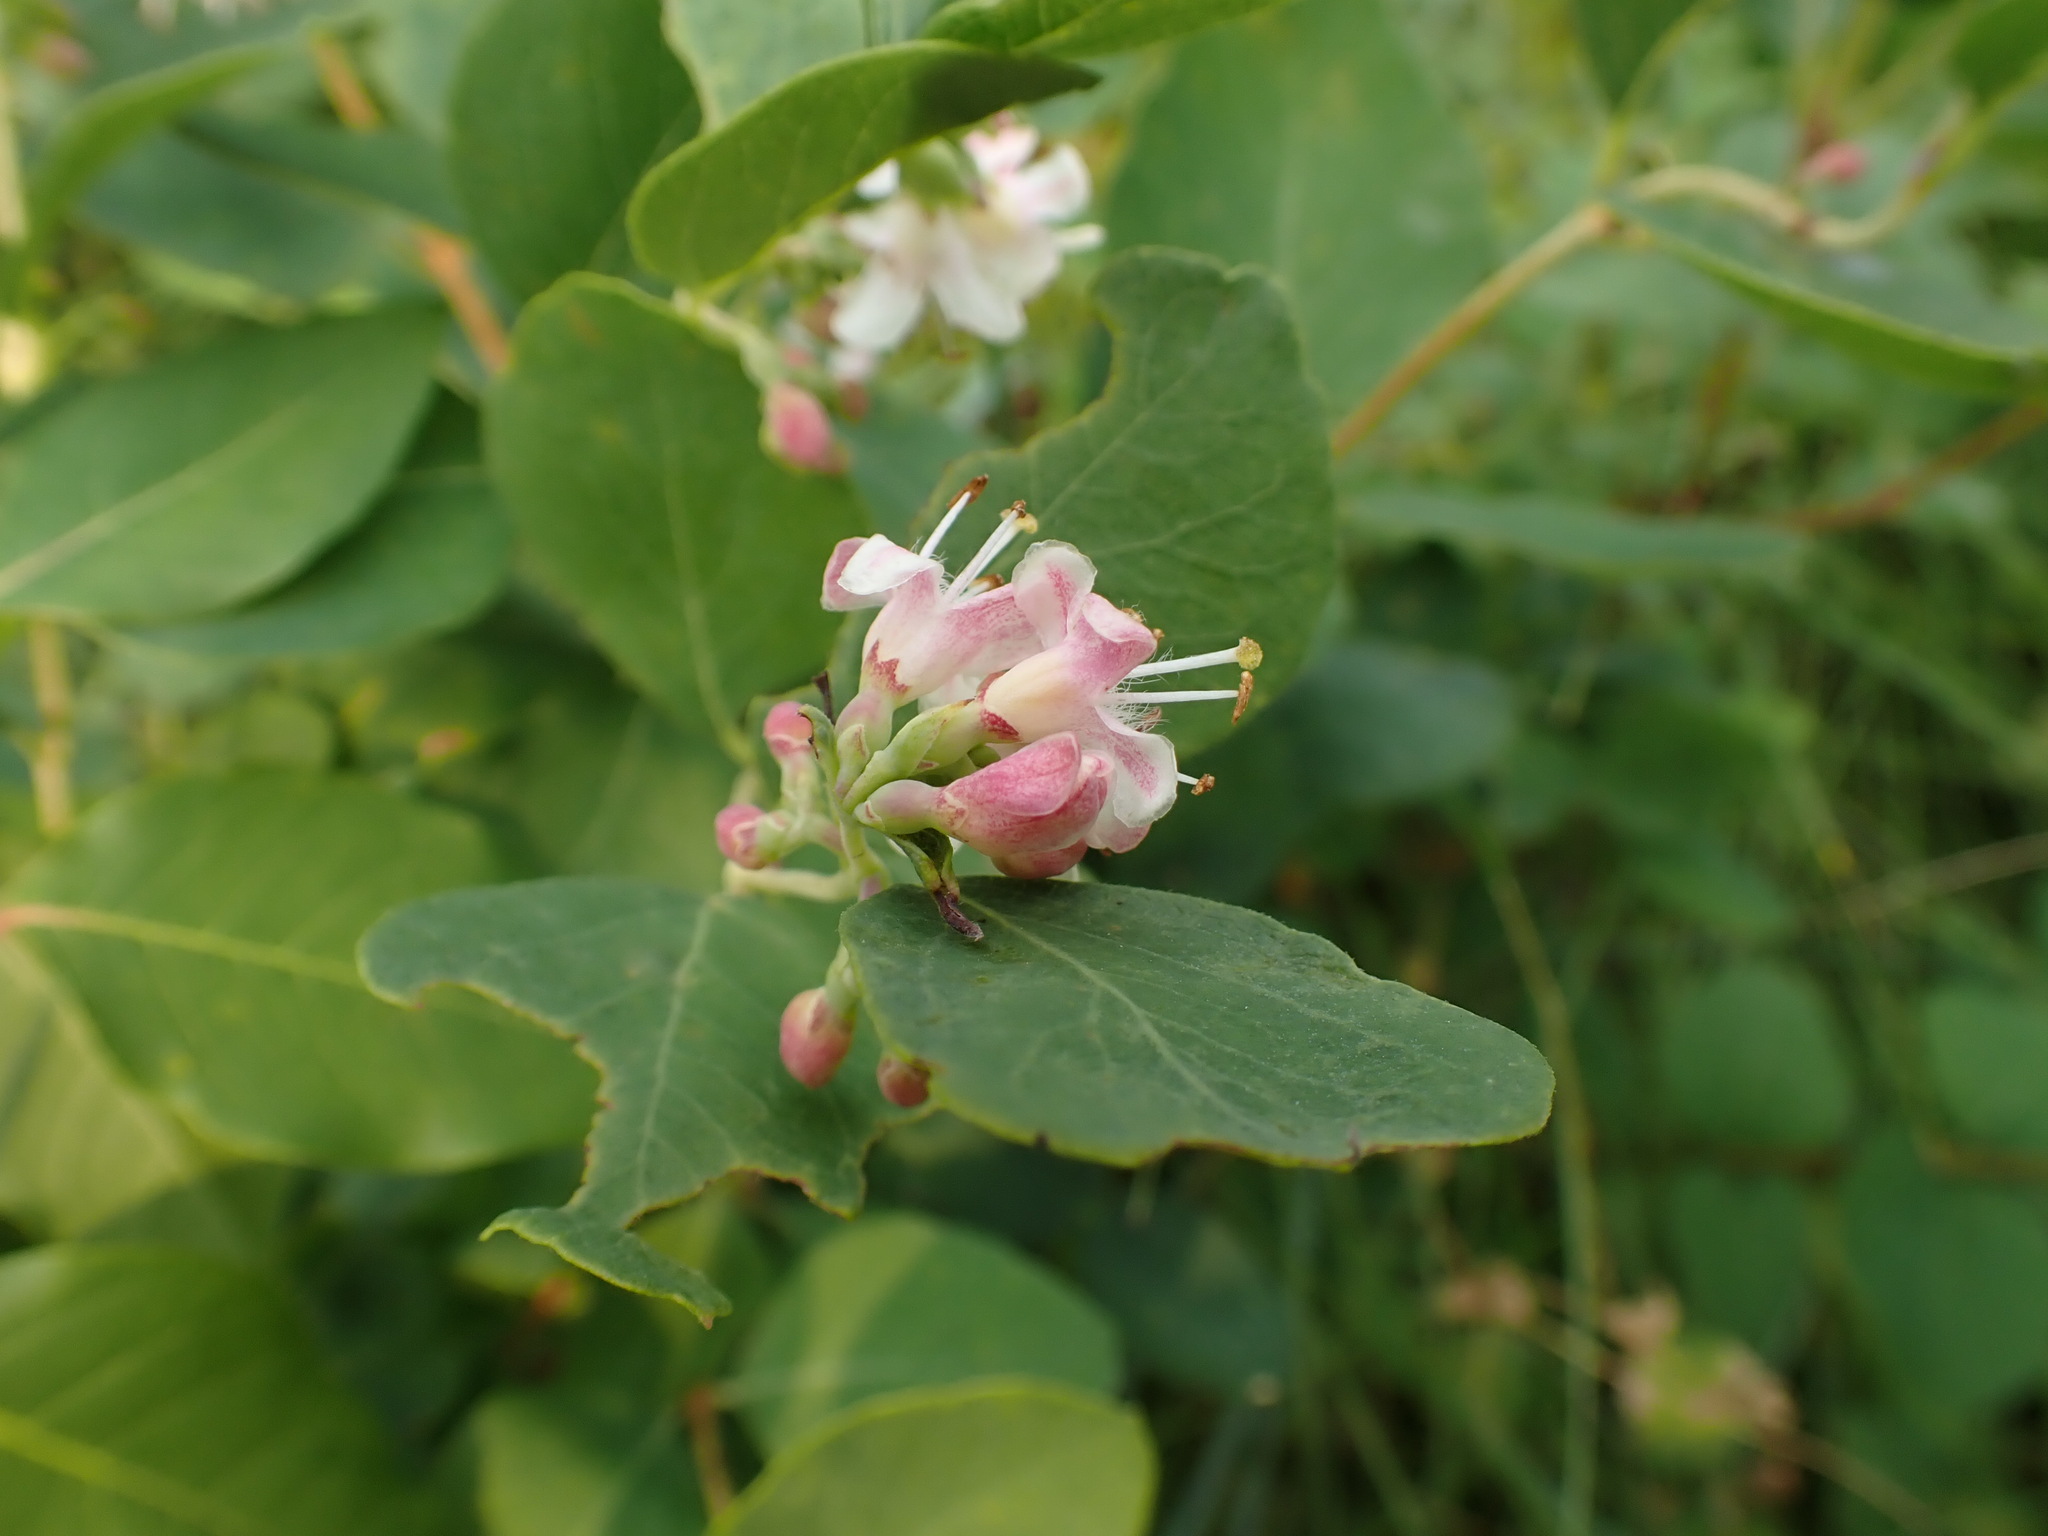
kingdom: Plantae
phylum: Tracheophyta
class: Magnoliopsida
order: Dipsacales
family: Caprifoliaceae
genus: Symphoricarpos
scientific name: Symphoricarpos occidentalis
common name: Wolfberry
